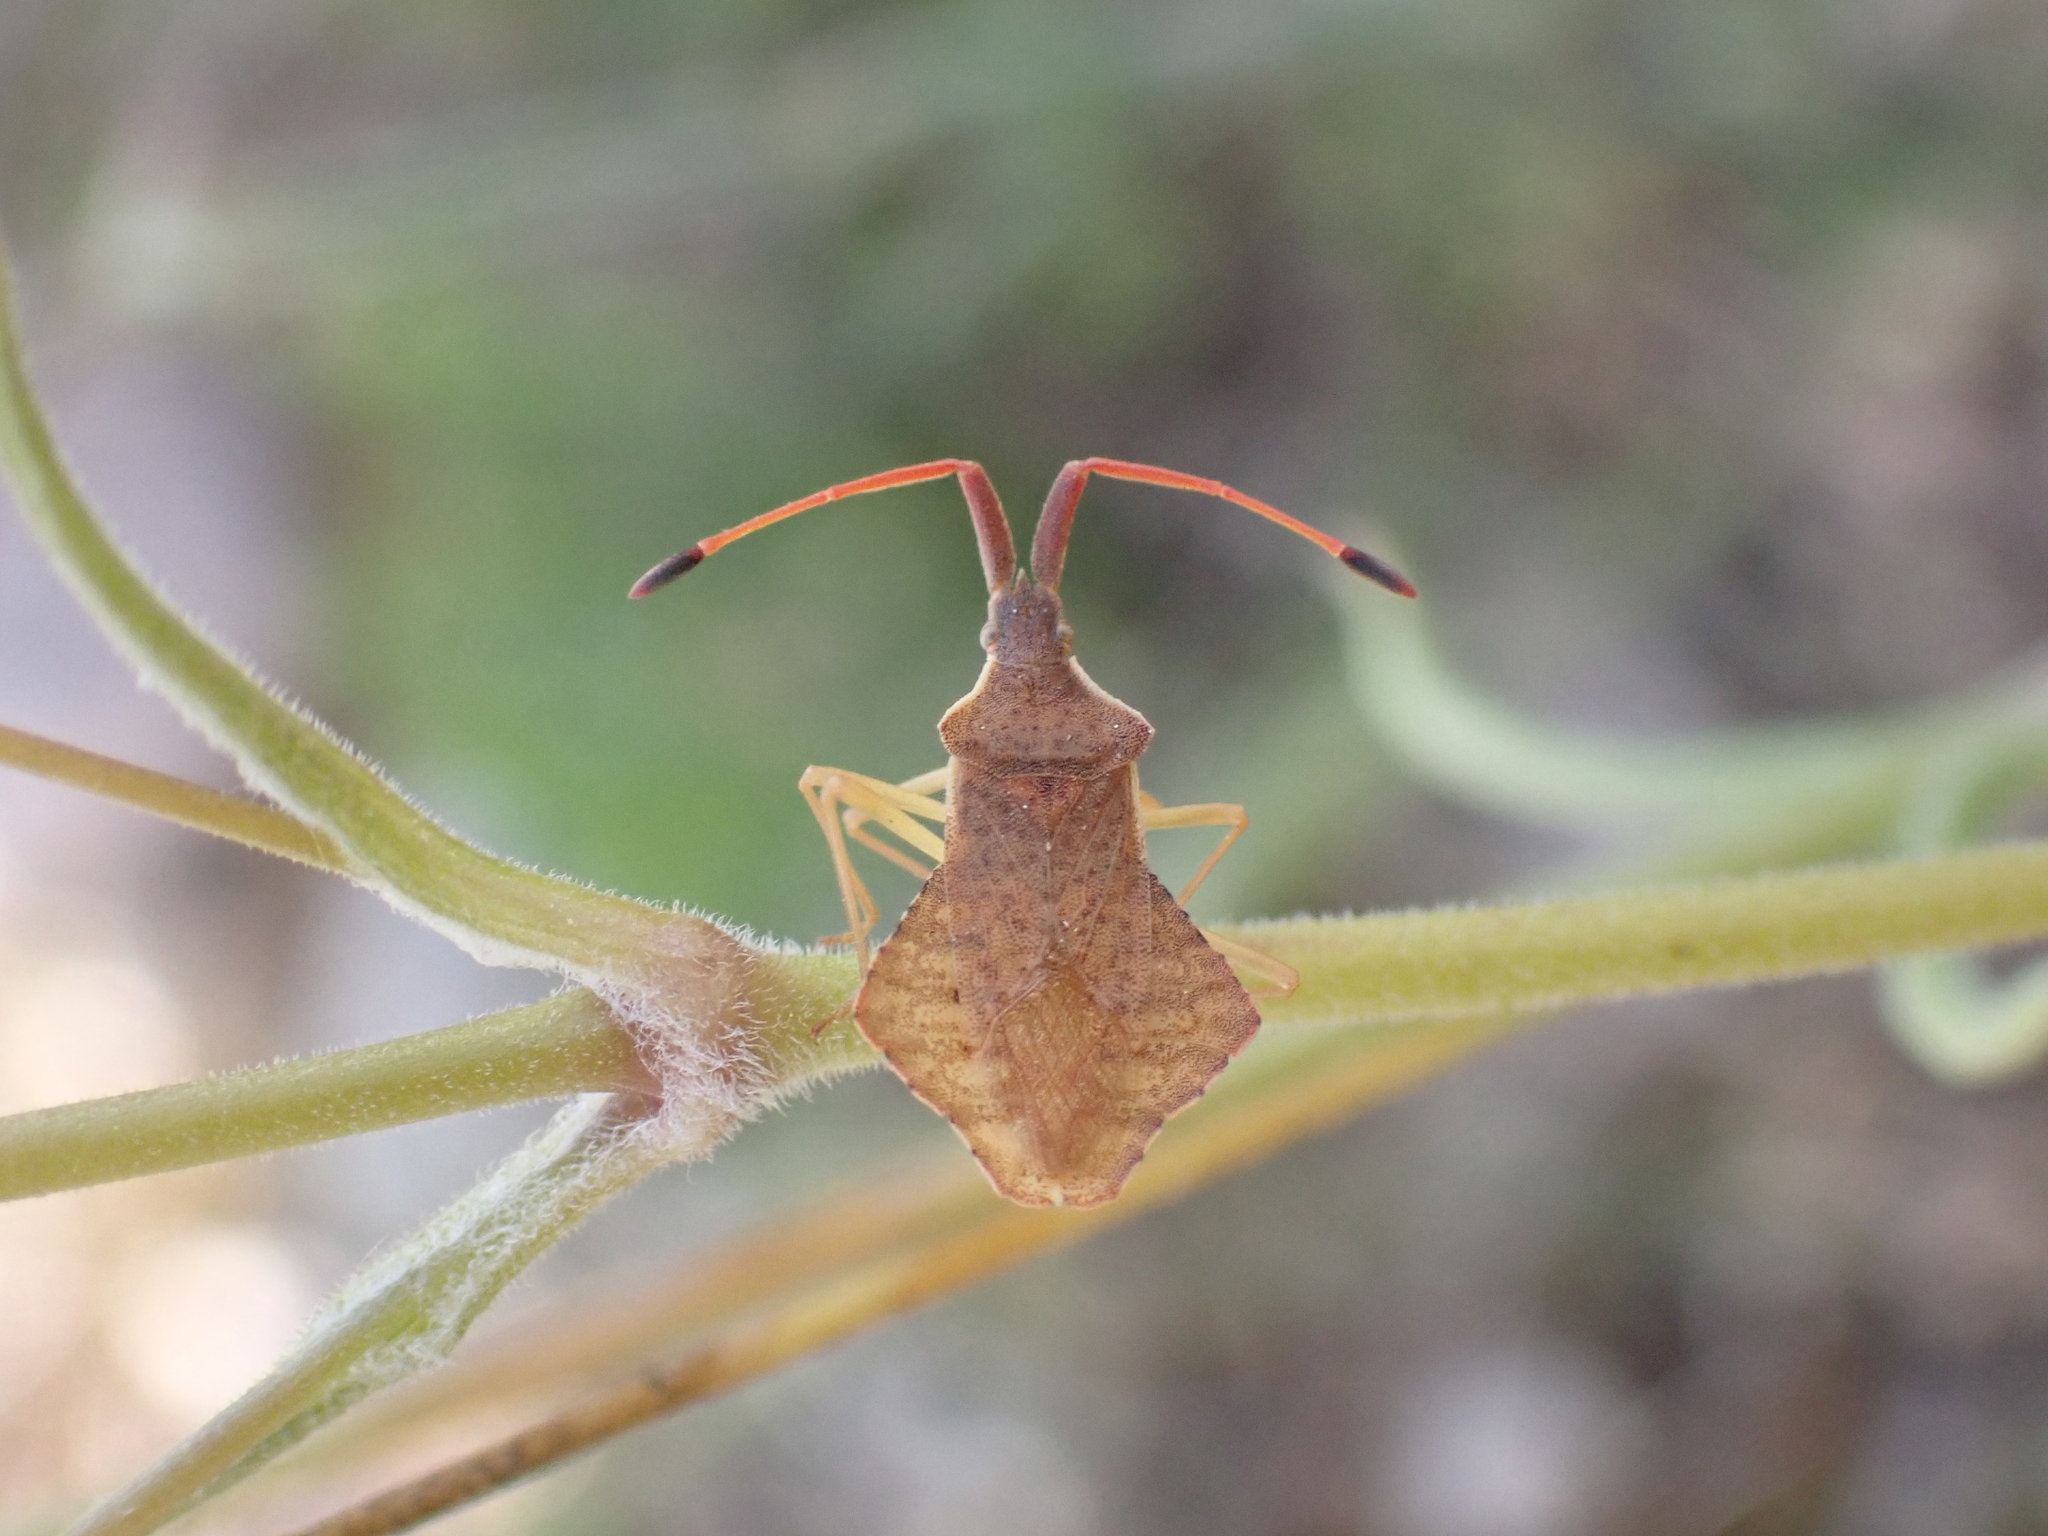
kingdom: Animalia
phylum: Arthropoda
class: Insecta
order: Hemiptera
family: Coreidae
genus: Syromastus
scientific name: Syromastus rhombeus
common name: Rhombic leatherbug
